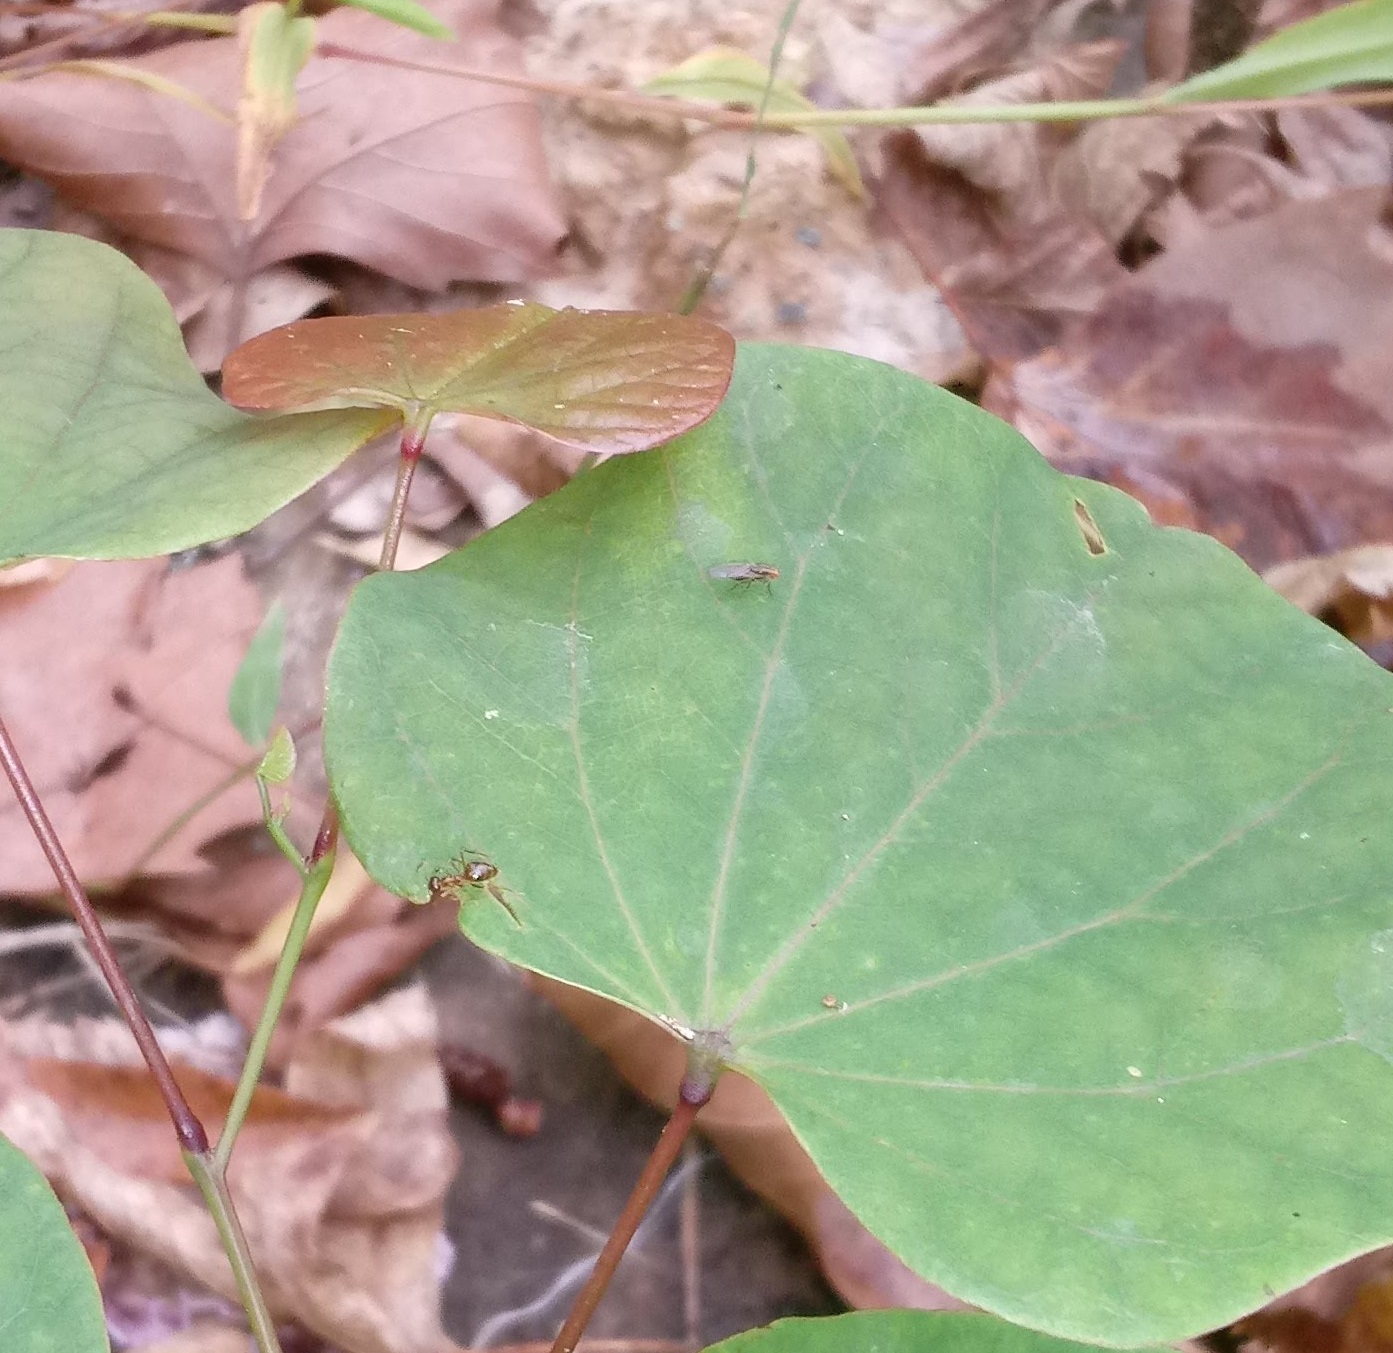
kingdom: Animalia
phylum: Arthropoda
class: Insecta
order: Hymenoptera
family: Formicidae
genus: Prenolepis
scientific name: Prenolepis imparis
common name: Small honey ant
